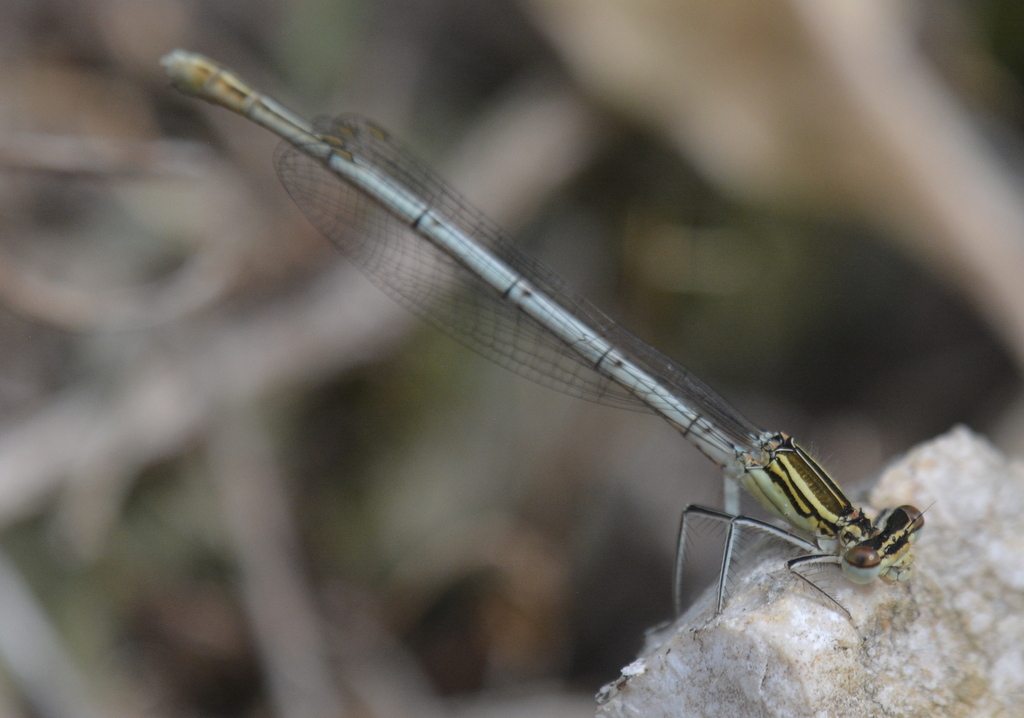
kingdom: Animalia
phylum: Arthropoda
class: Insecta
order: Odonata
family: Platycnemididae
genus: Platycnemis
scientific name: Platycnemis pennipes
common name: White-legged damselfly
